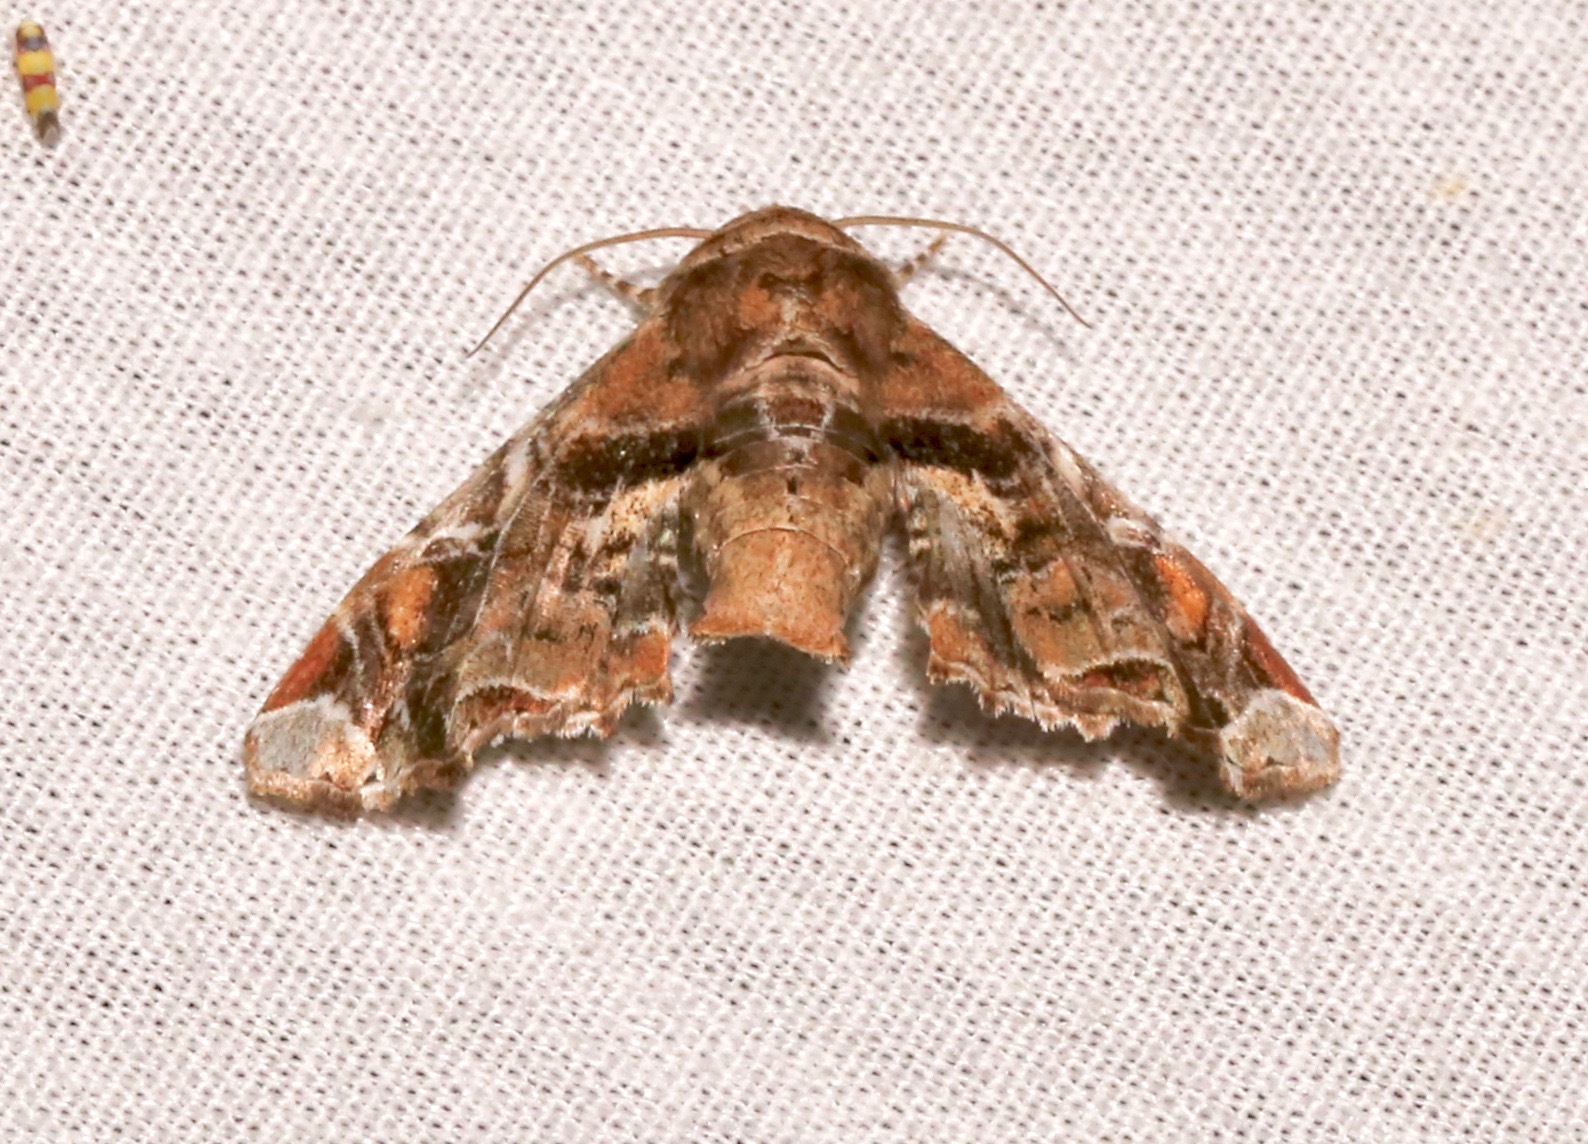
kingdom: Animalia
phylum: Arthropoda
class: Insecta
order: Lepidoptera
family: Euteliidae
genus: Eutelia
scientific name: Eutelia furcata
